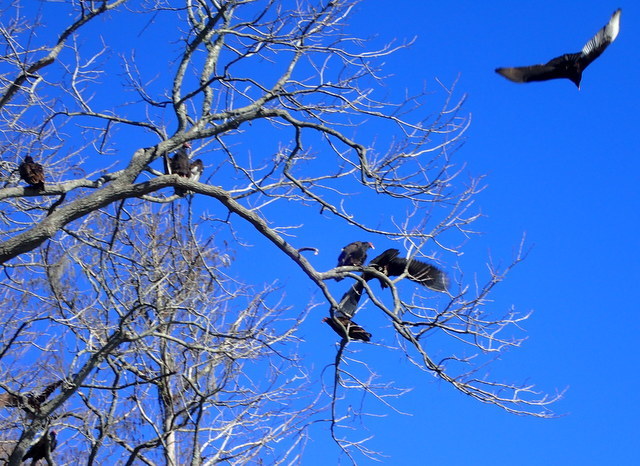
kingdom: Animalia
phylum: Chordata
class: Aves
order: Accipitriformes
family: Cathartidae
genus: Cathartes
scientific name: Cathartes aura
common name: Turkey vulture
